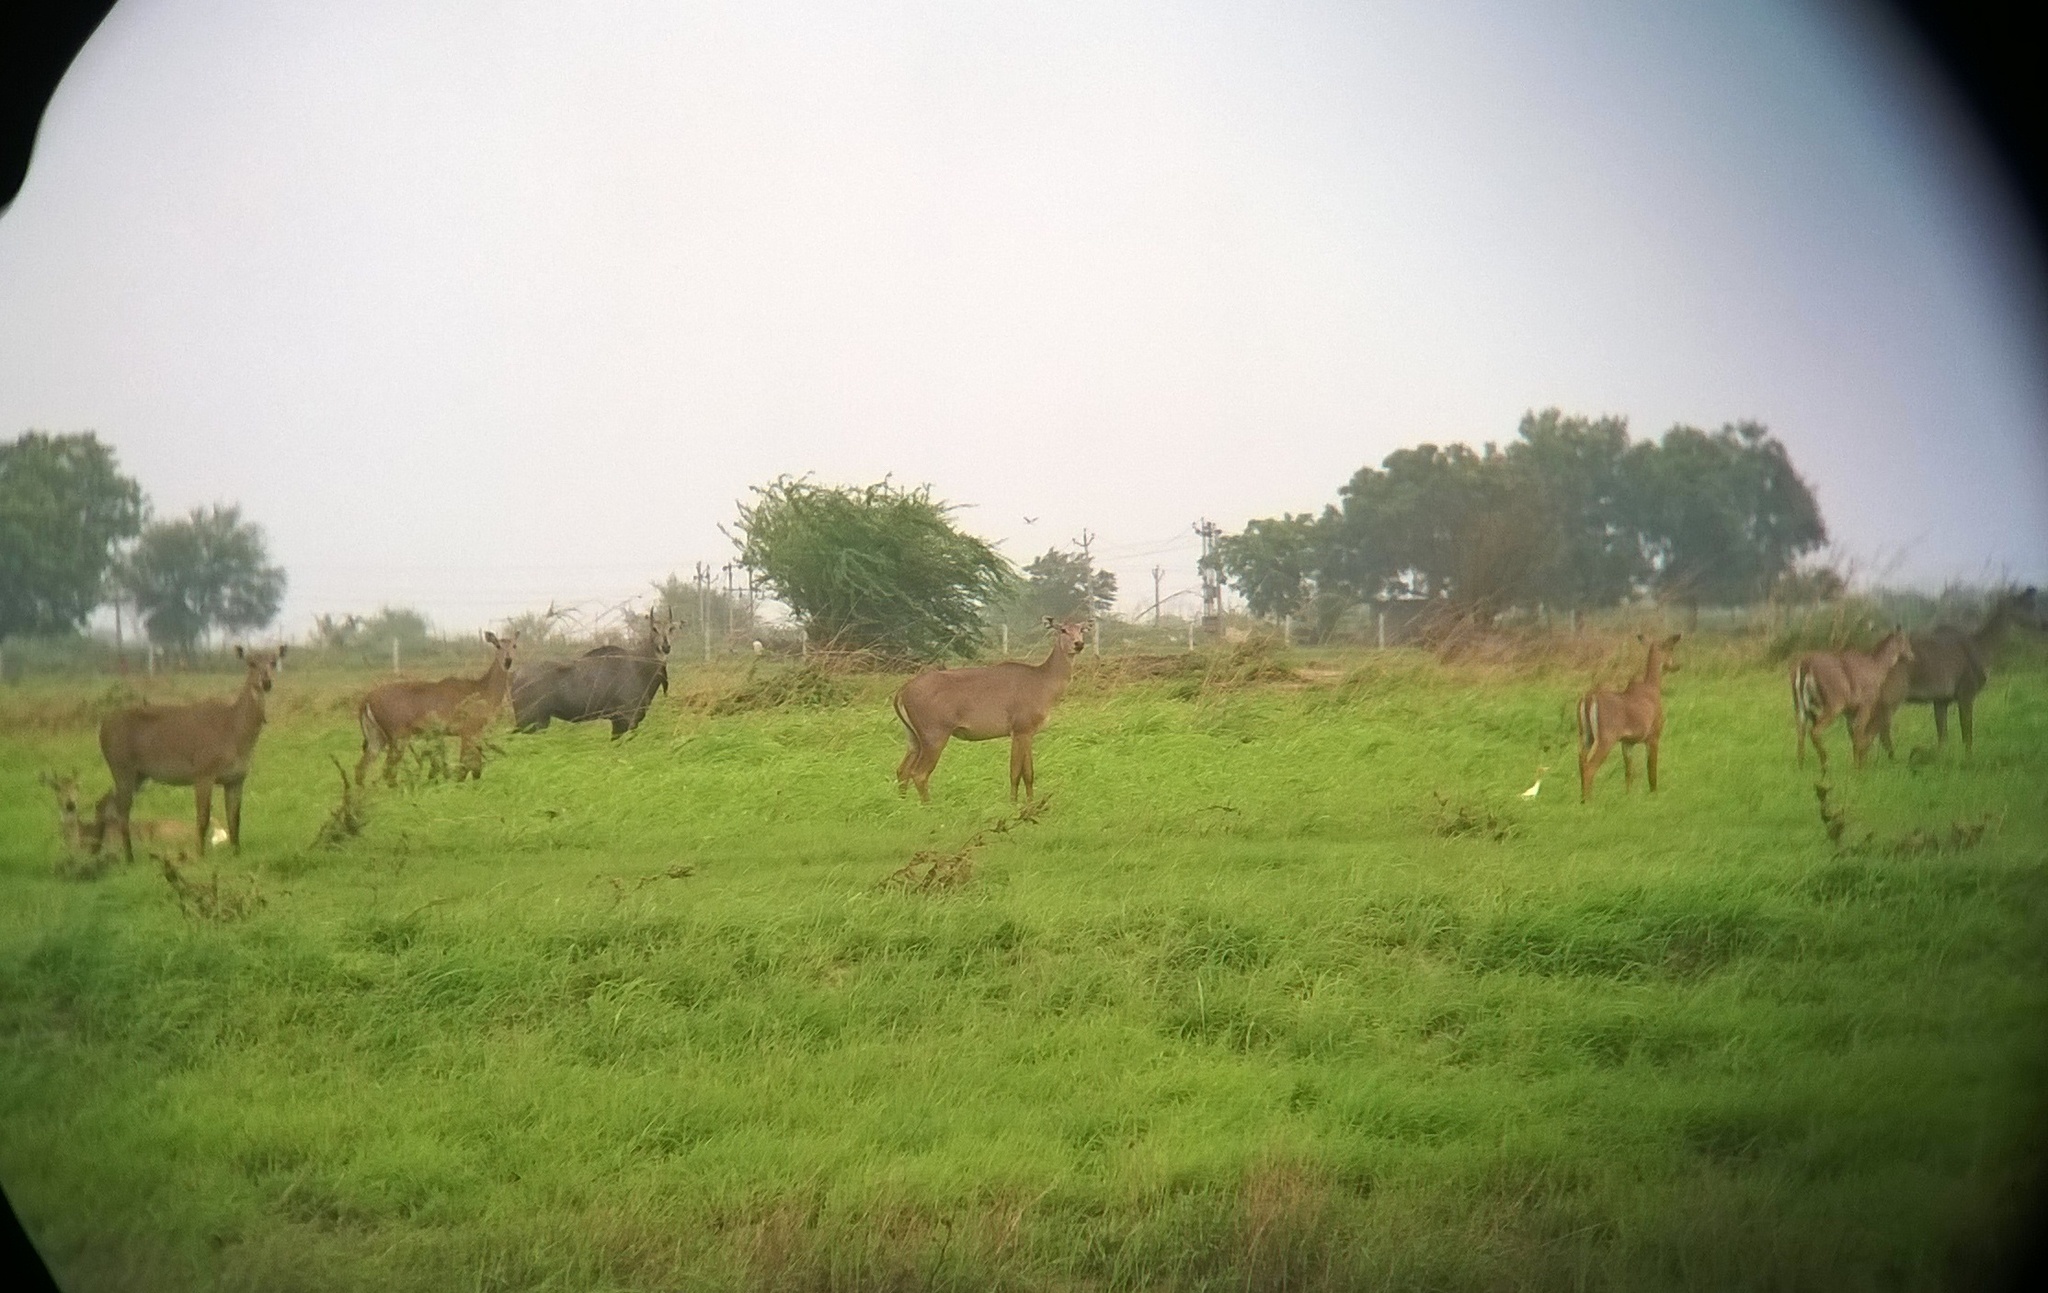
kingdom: Animalia
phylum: Chordata
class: Mammalia
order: Artiodactyla
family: Bovidae
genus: Boselaphus
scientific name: Boselaphus tragocamelus
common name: Nilgai
